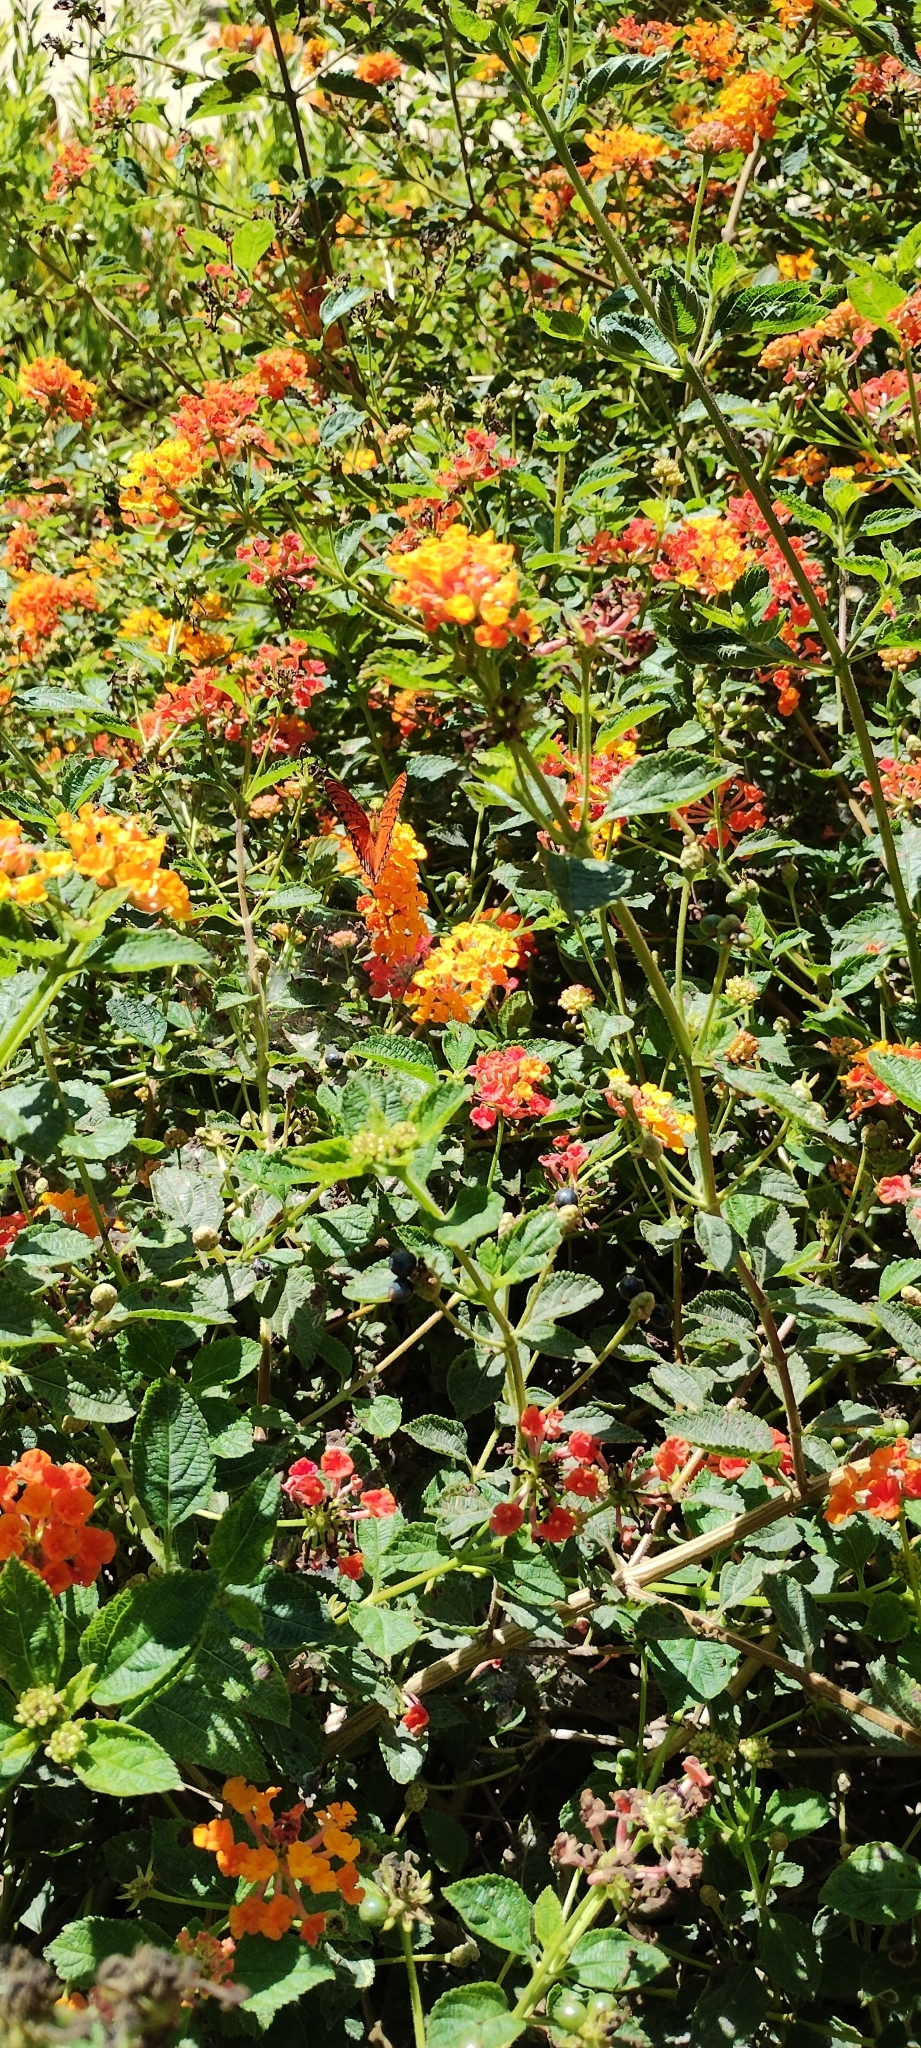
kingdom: Animalia
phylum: Arthropoda
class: Insecta
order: Lepidoptera
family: Nymphalidae
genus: Dione
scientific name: Dione vanillae
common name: Gulf fritillary
